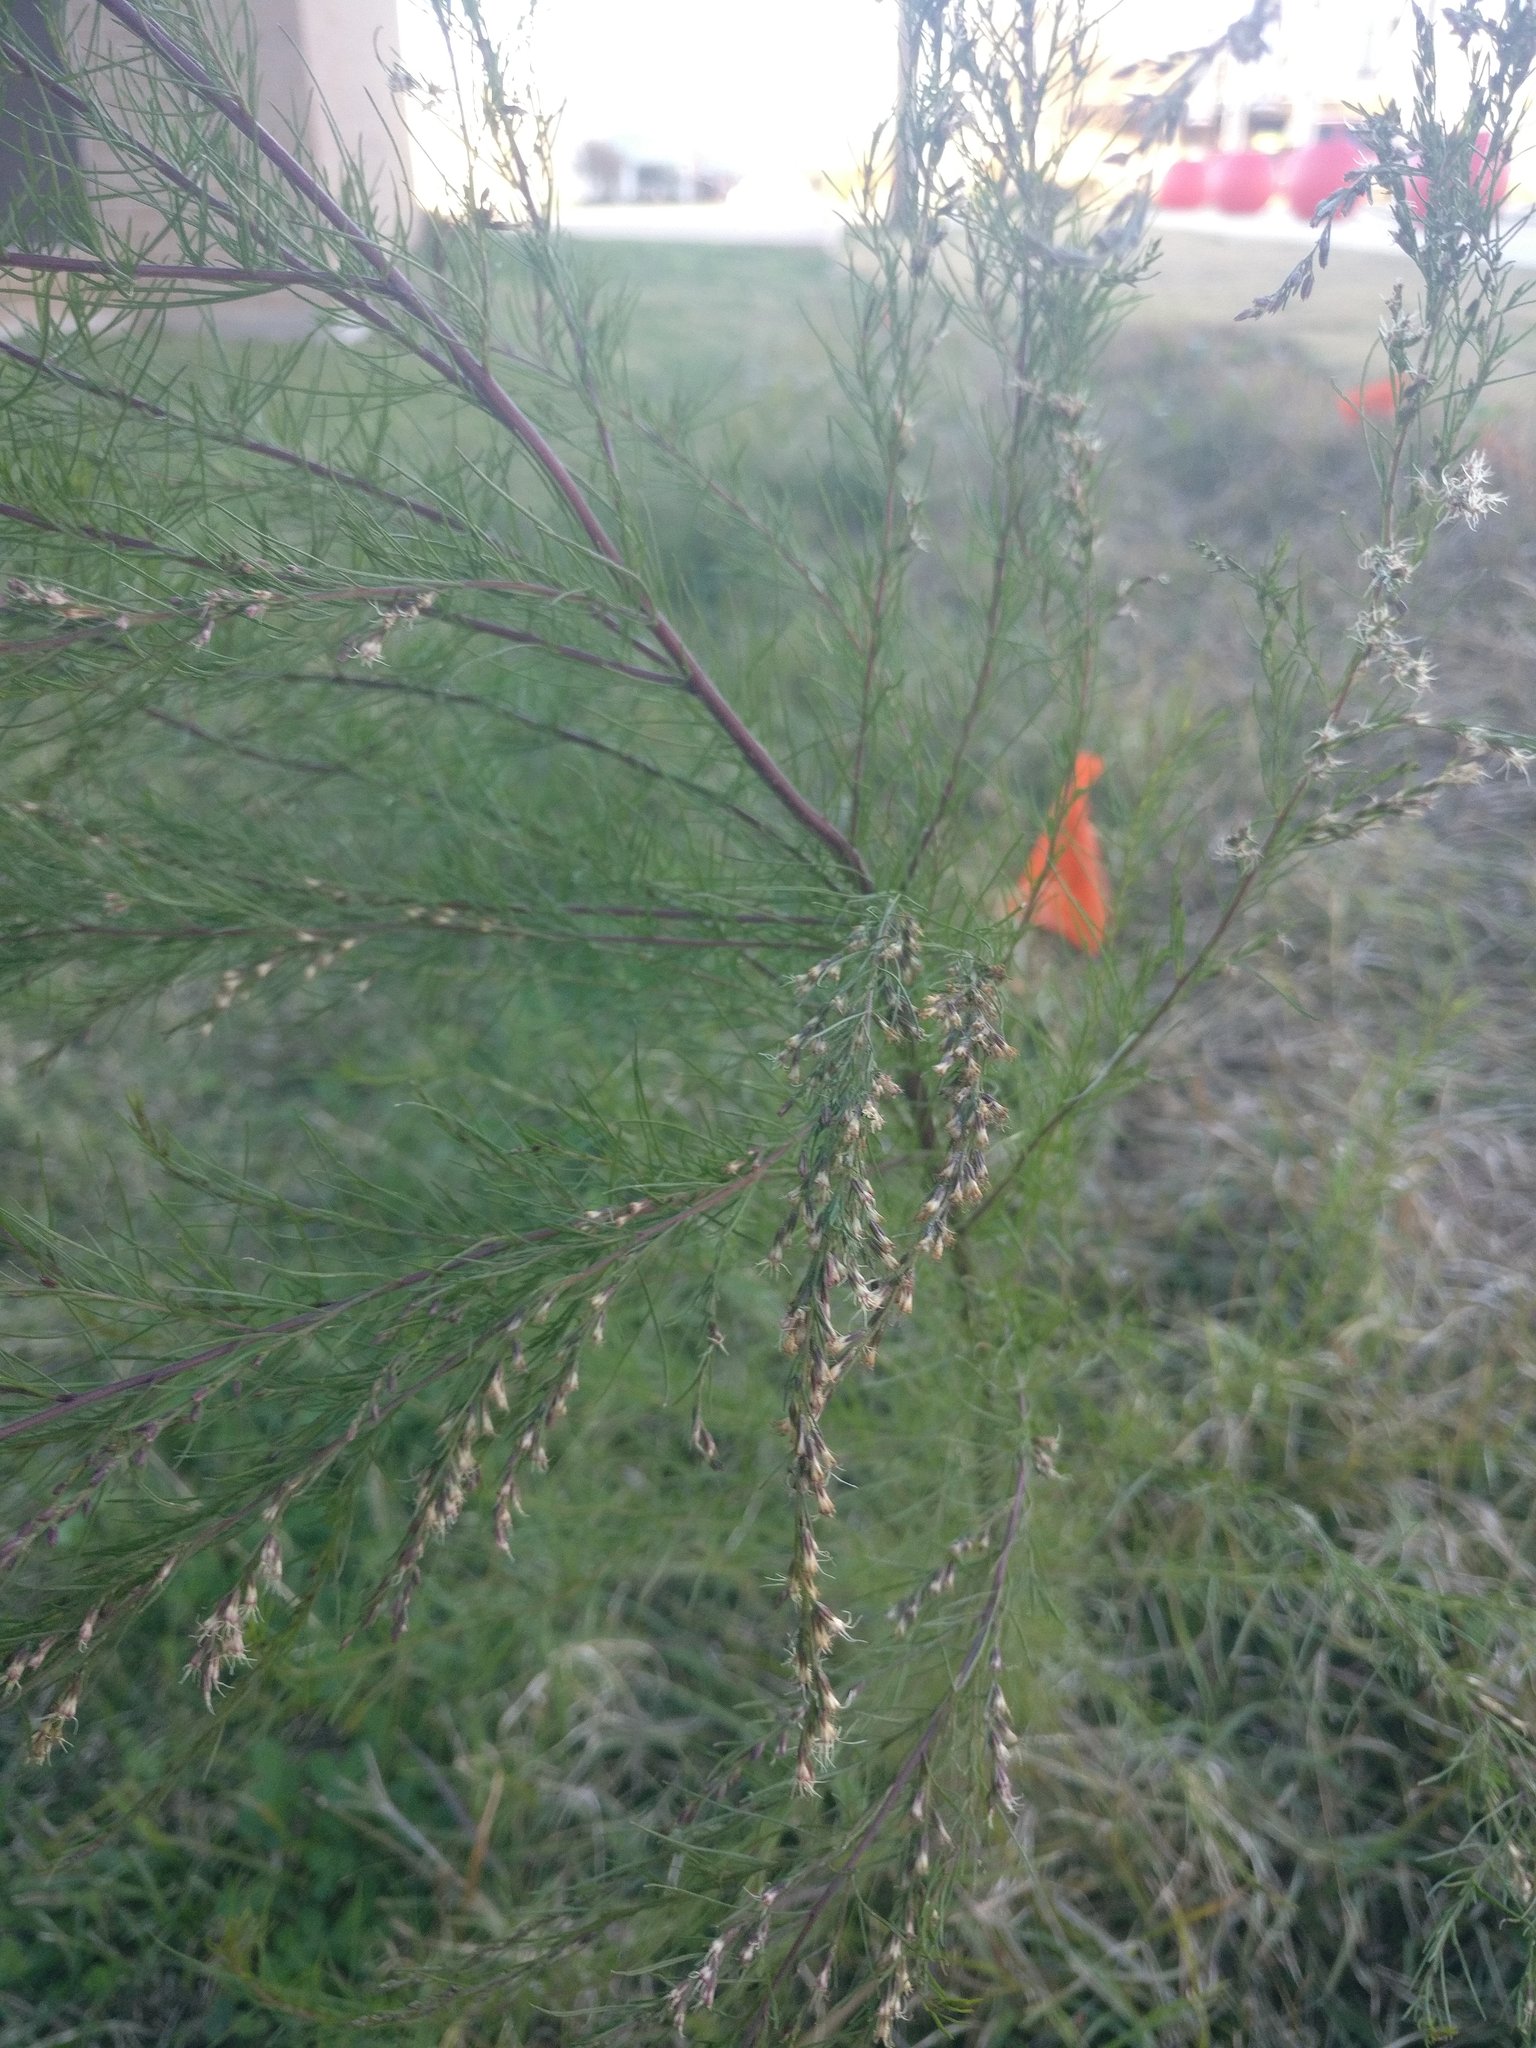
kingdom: Plantae
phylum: Tracheophyta
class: Magnoliopsida
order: Asterales
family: Asteraceae
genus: Eupatorium
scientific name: Eupatorium capillifolium
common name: Dog-fennel
